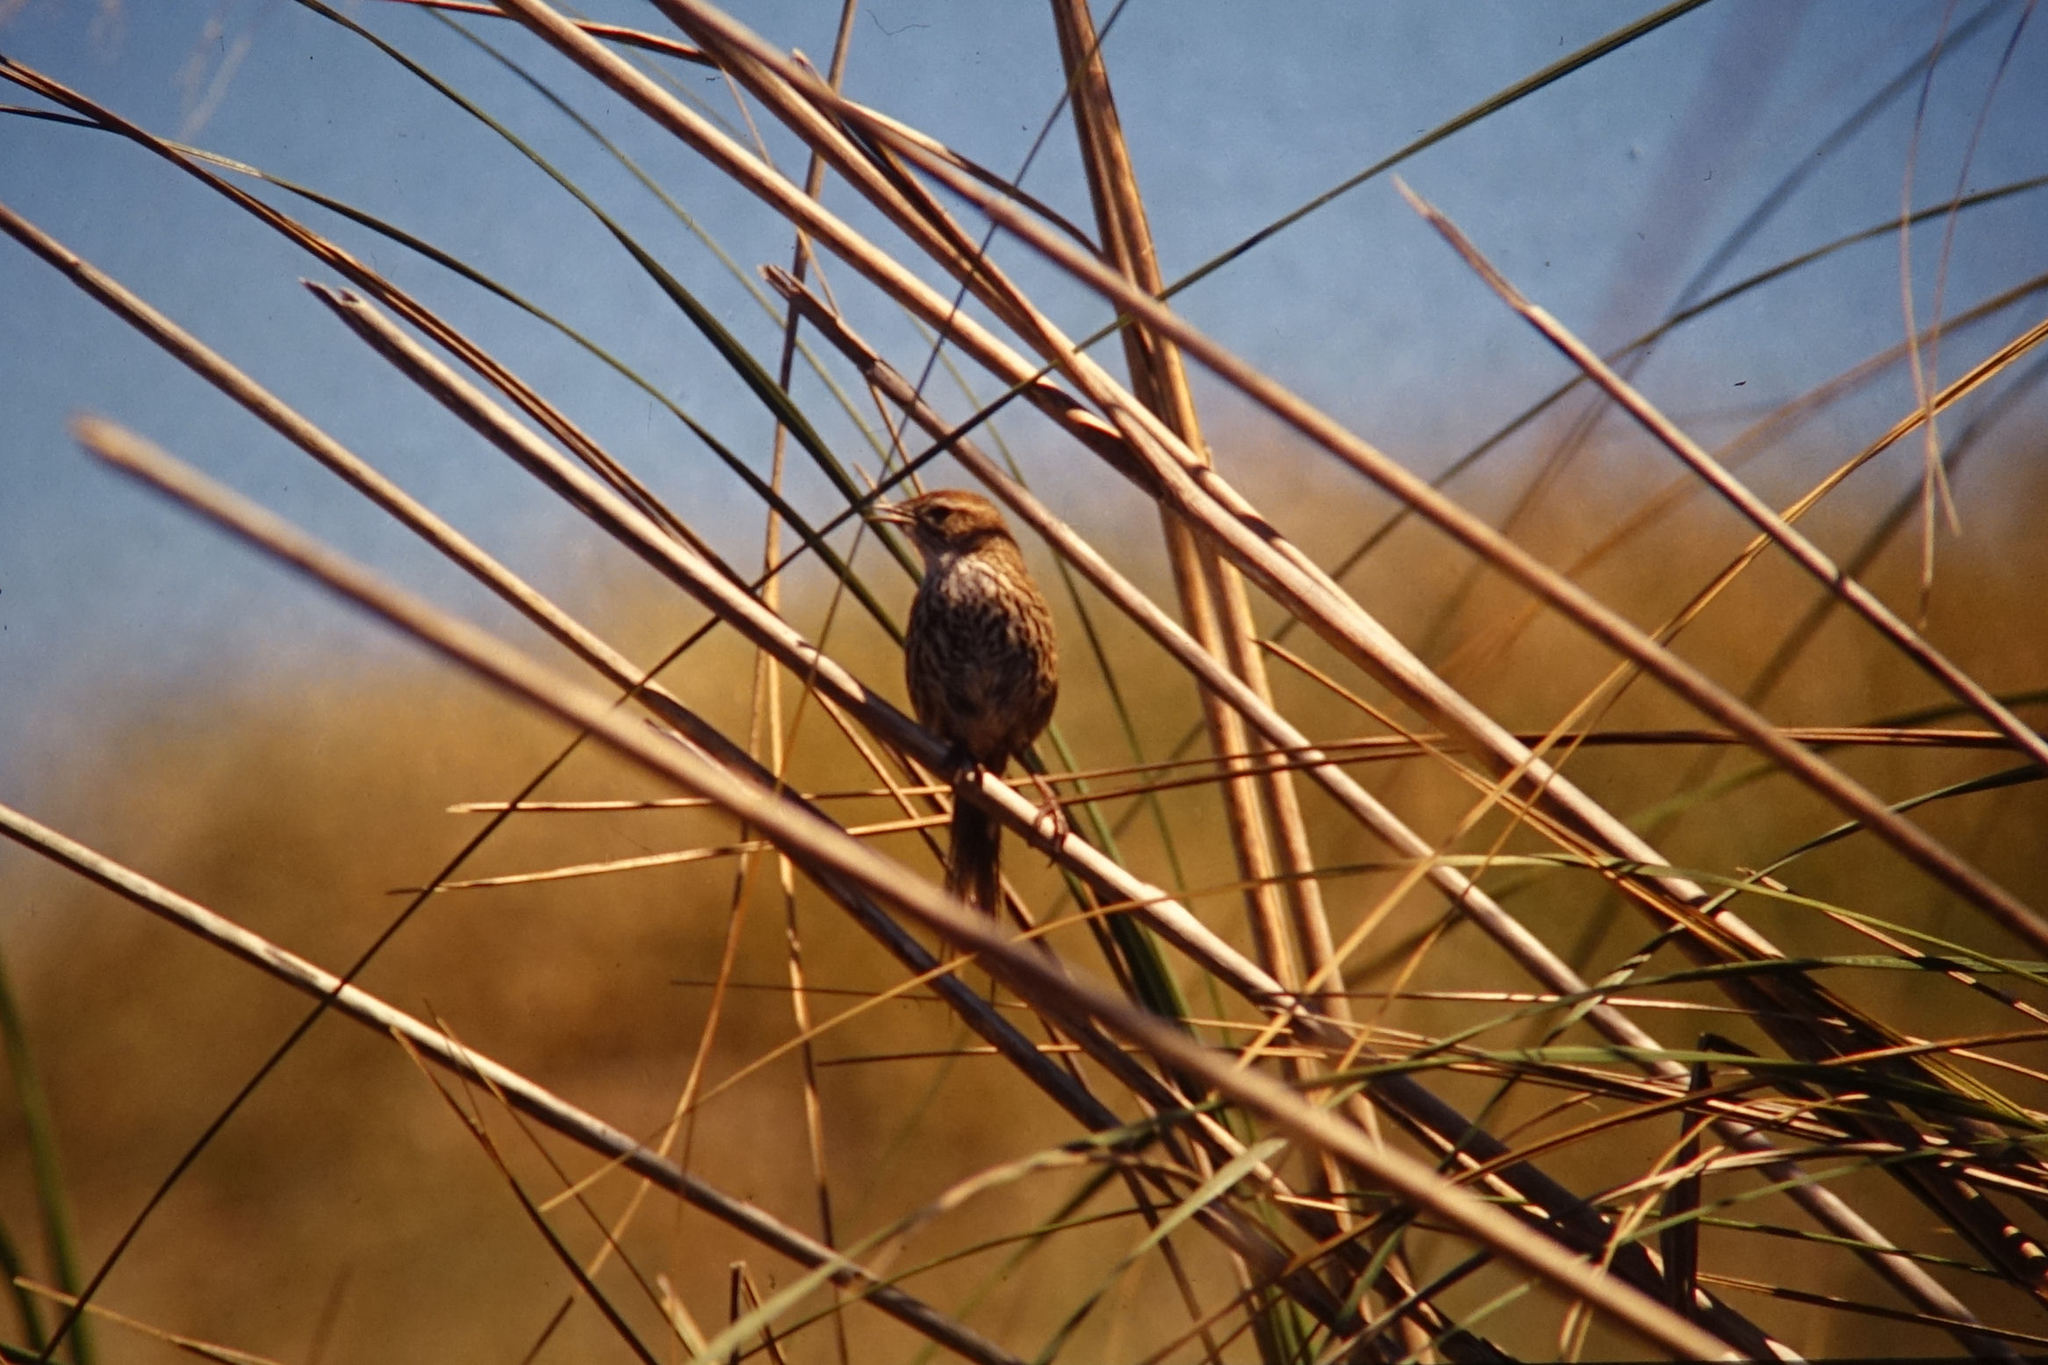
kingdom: Animalia
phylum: Chordata
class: Aves
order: Passeriformes
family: Locustellidae
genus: Megalurus
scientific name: Megalurus punctatus
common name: New zealand fernbird
